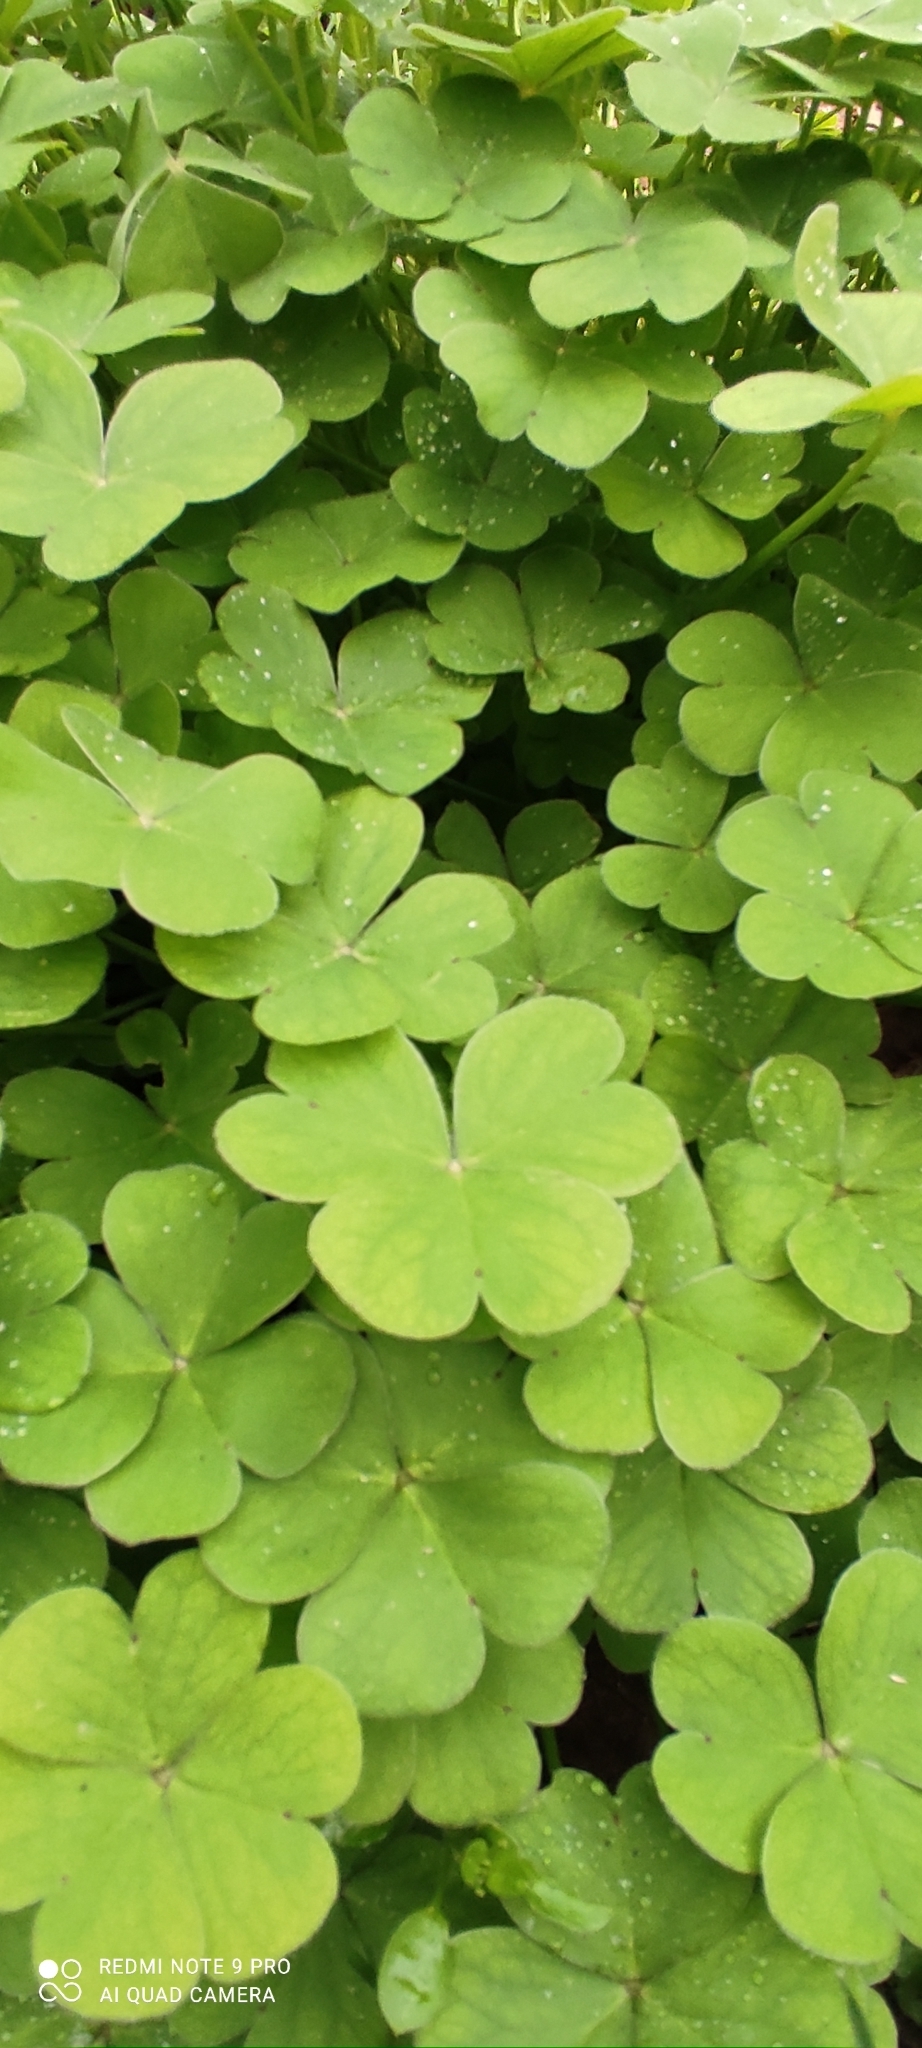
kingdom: Plantae
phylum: Tracheophyta
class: Magnoliopsida
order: Oxalidales
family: Oxalidaceae
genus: Oxalis
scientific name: Oxalis articulata
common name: Pink-sorrel
